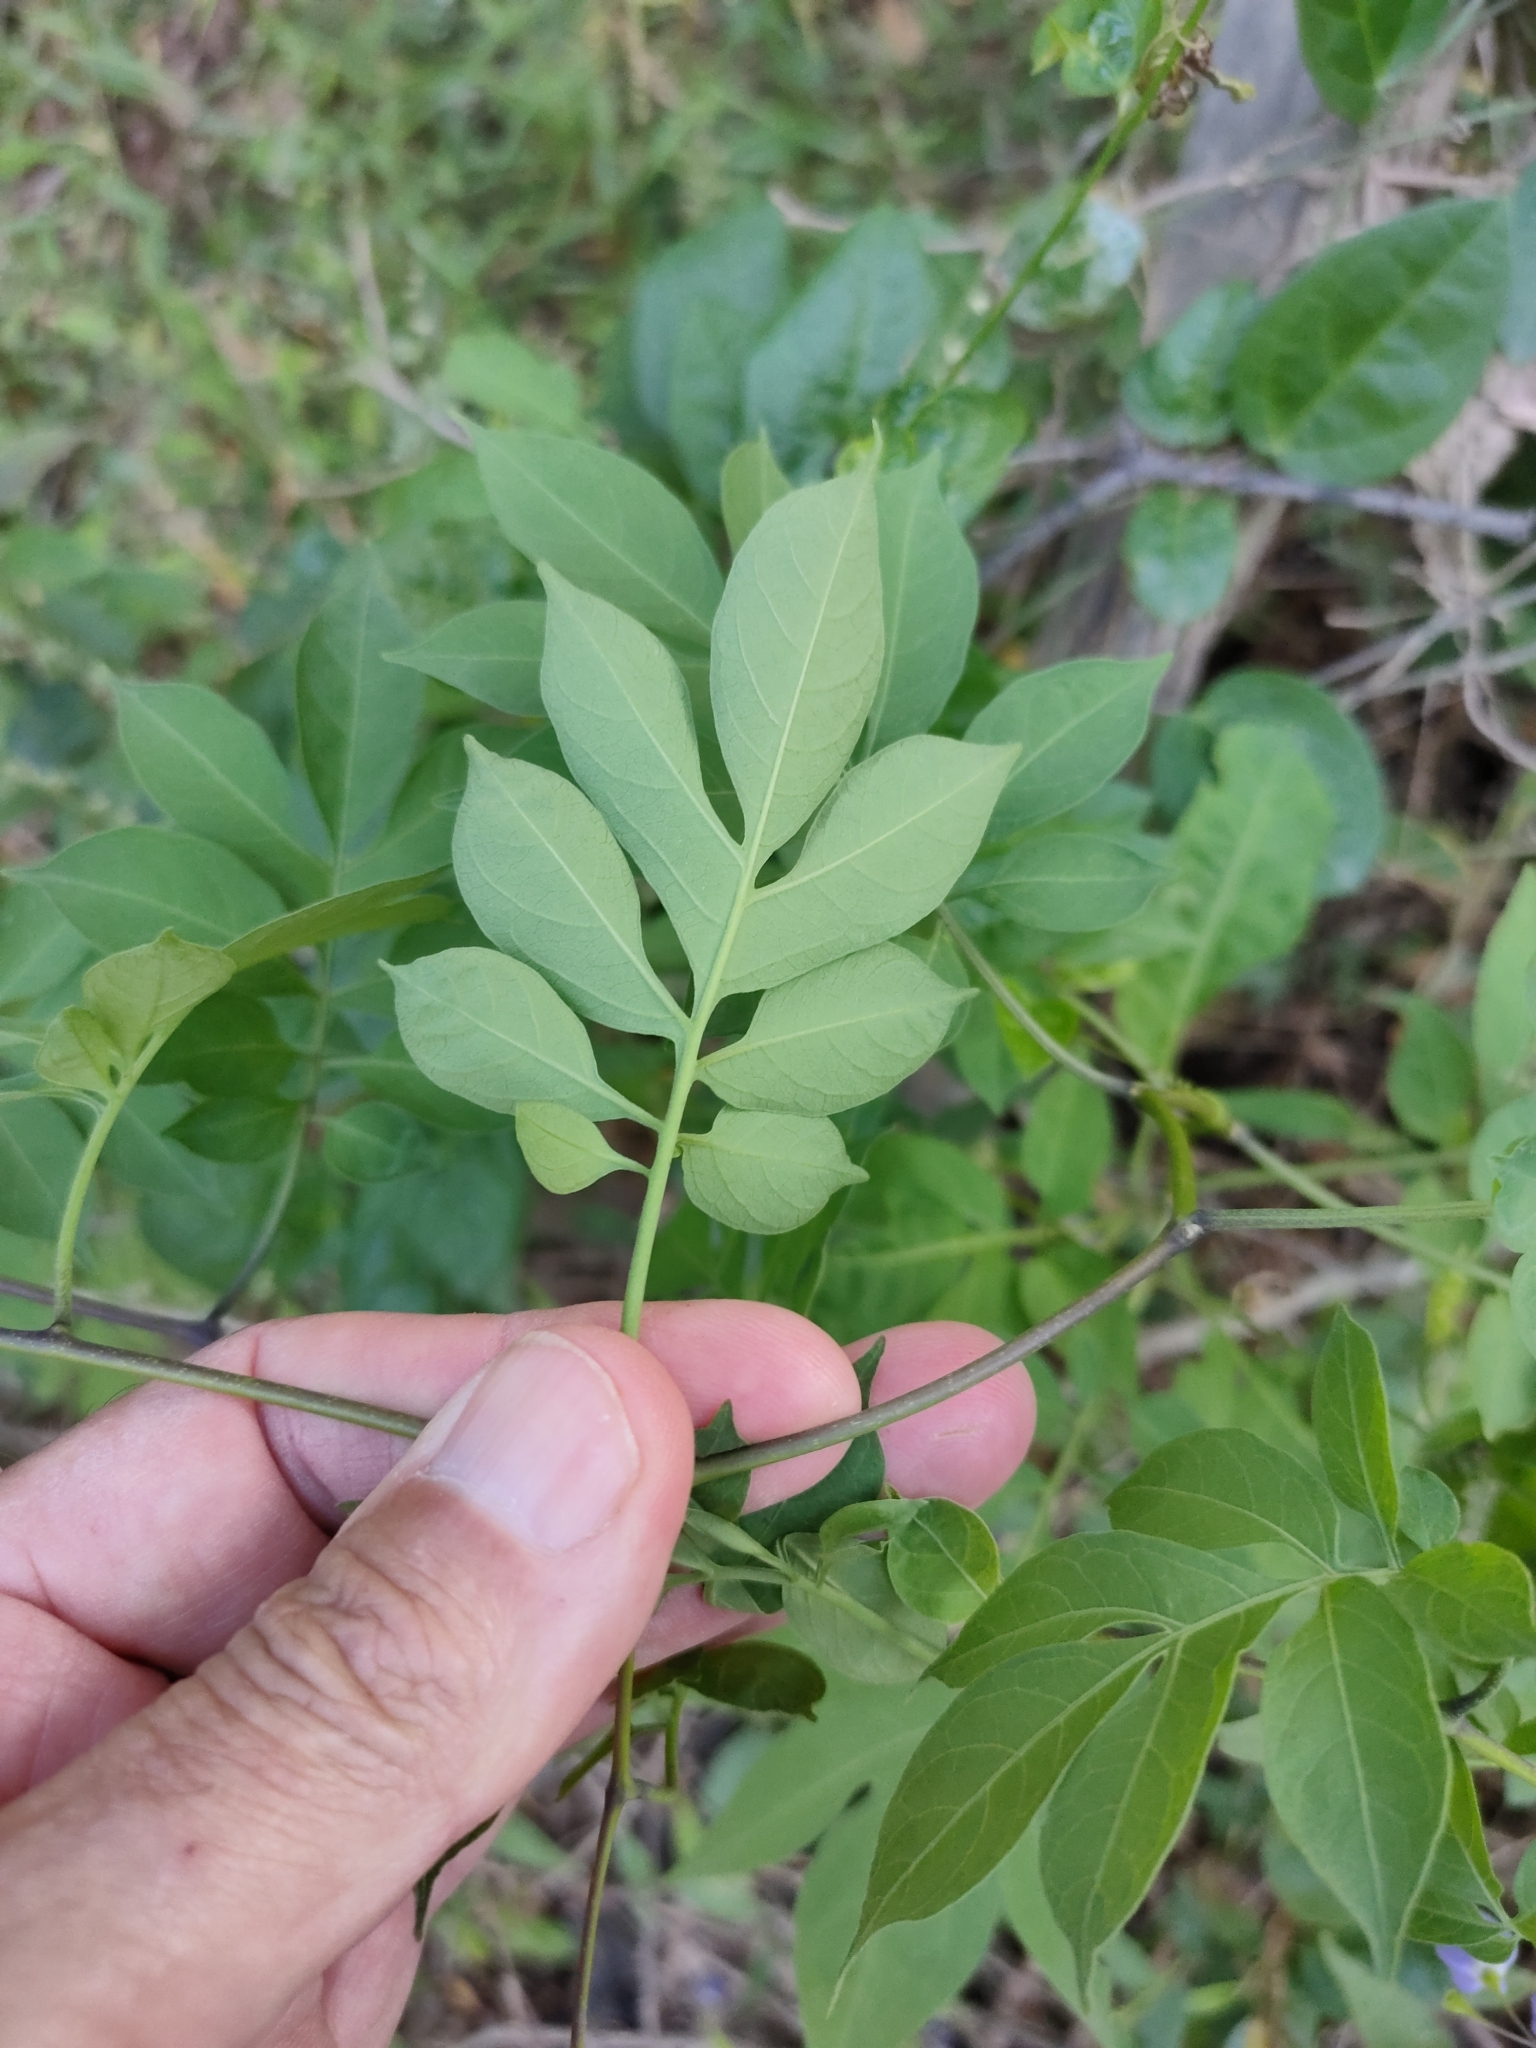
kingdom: Plantae
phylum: Tracheophyta
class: Magnoliopsida
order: Solanales
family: Solanaceae
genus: Solanum
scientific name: Solanum seaforthianum
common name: Brazilian nightshade
